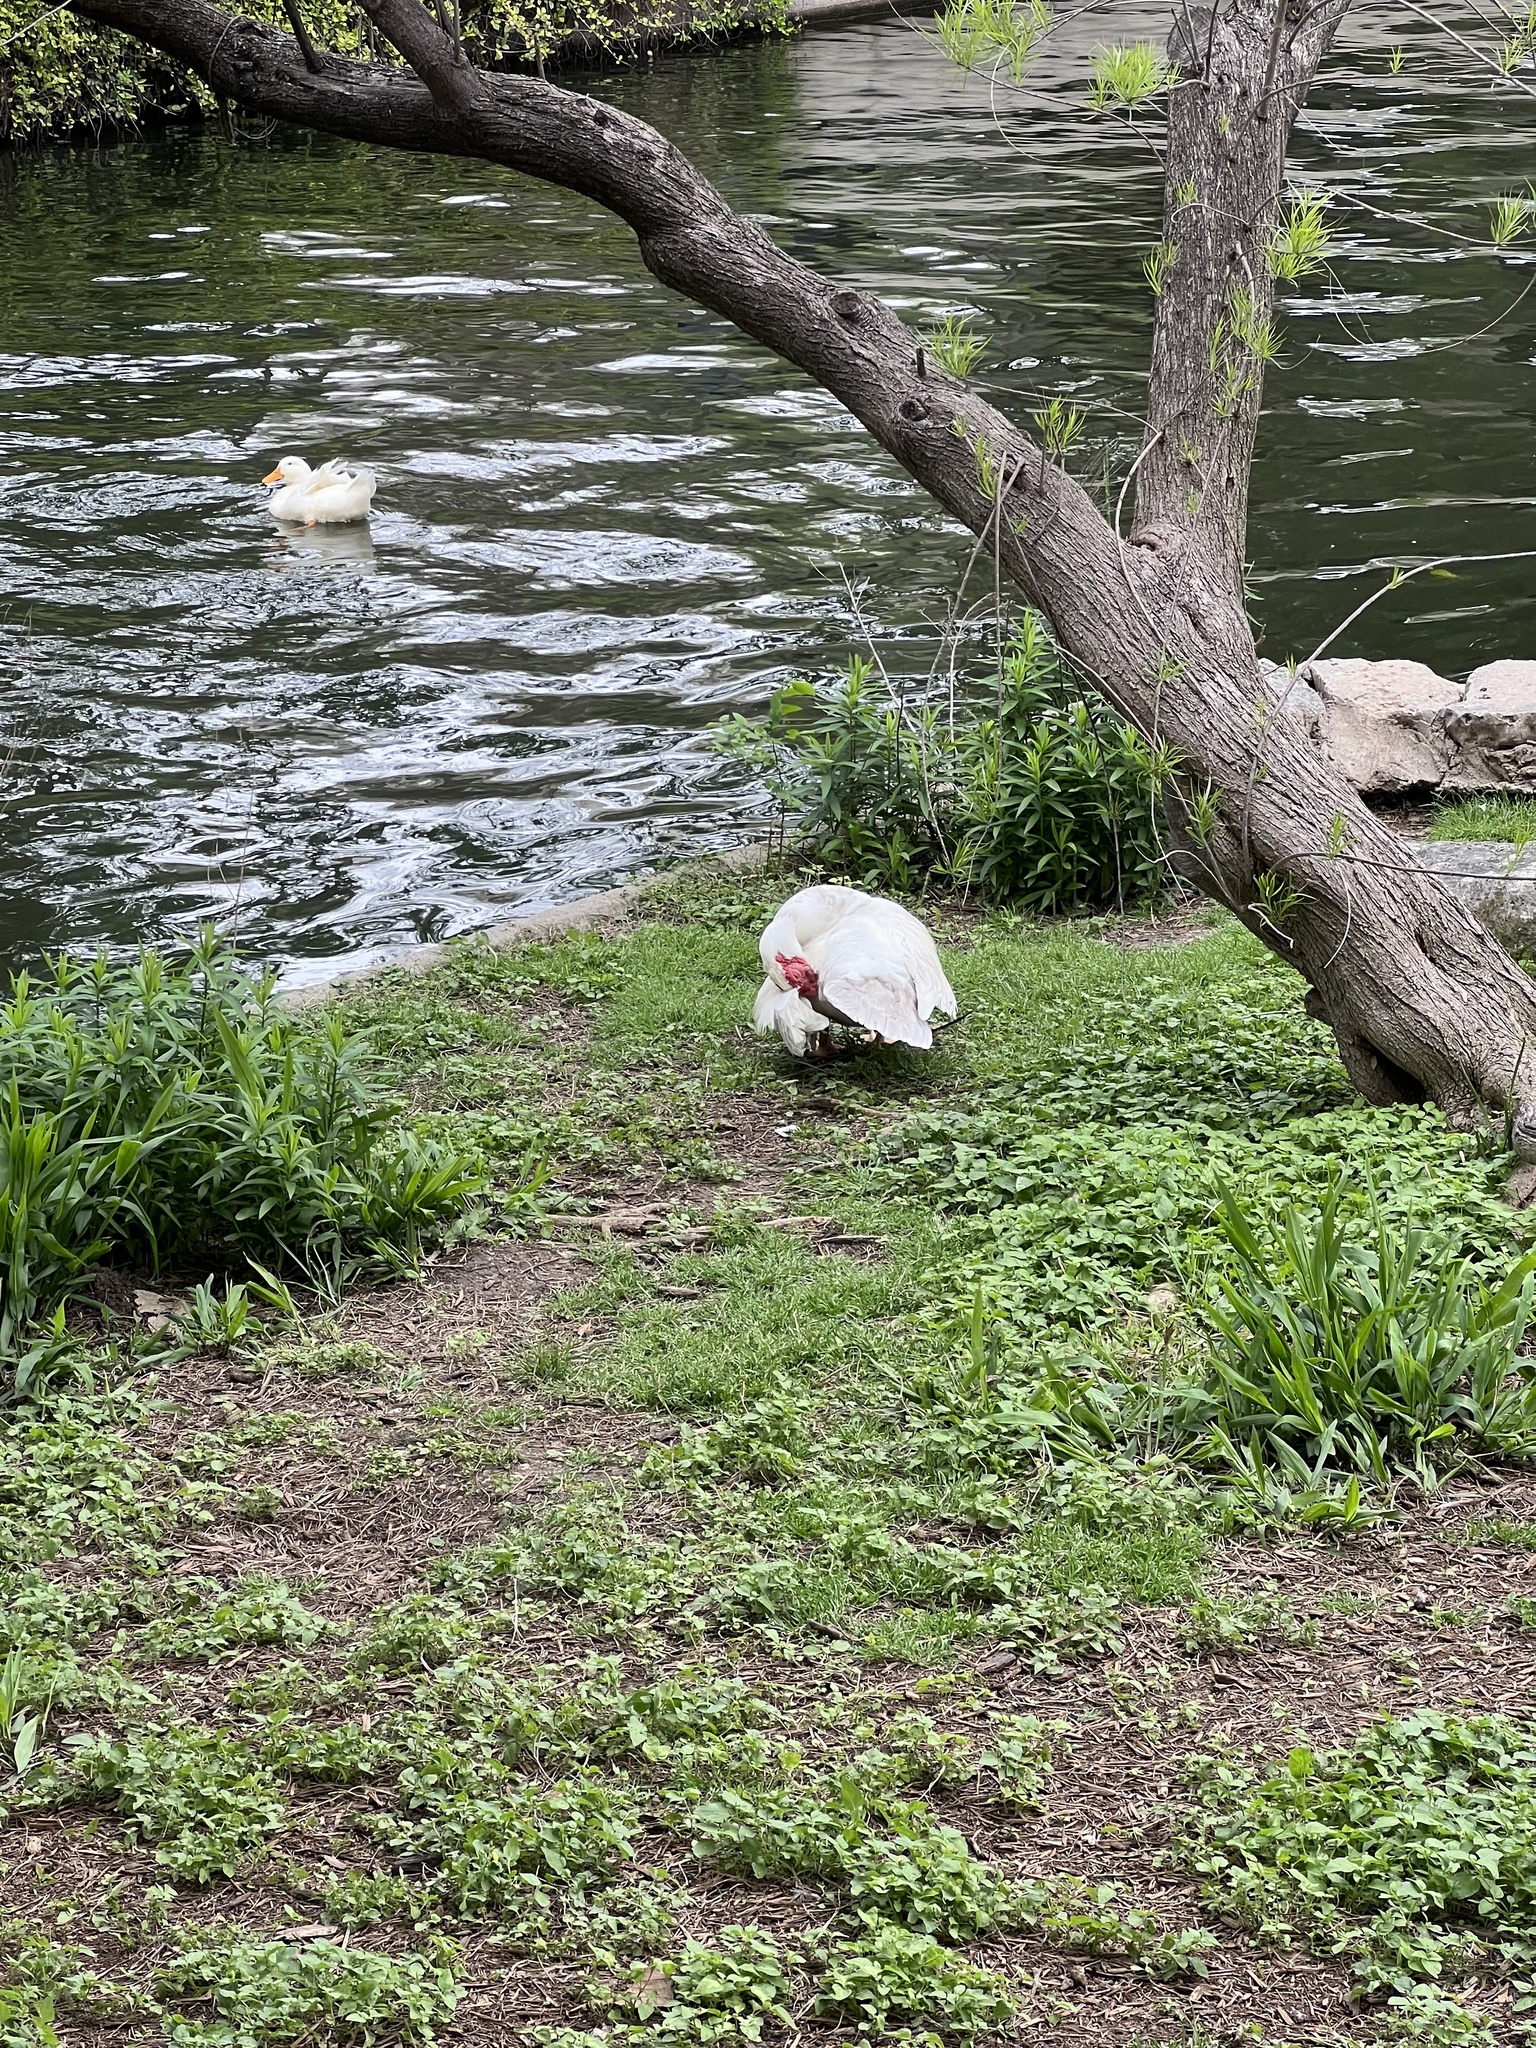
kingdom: Animalia
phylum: Chordata
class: Aves
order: Anseriformes
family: Anatidae
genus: Cairina
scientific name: Cairina moschata
